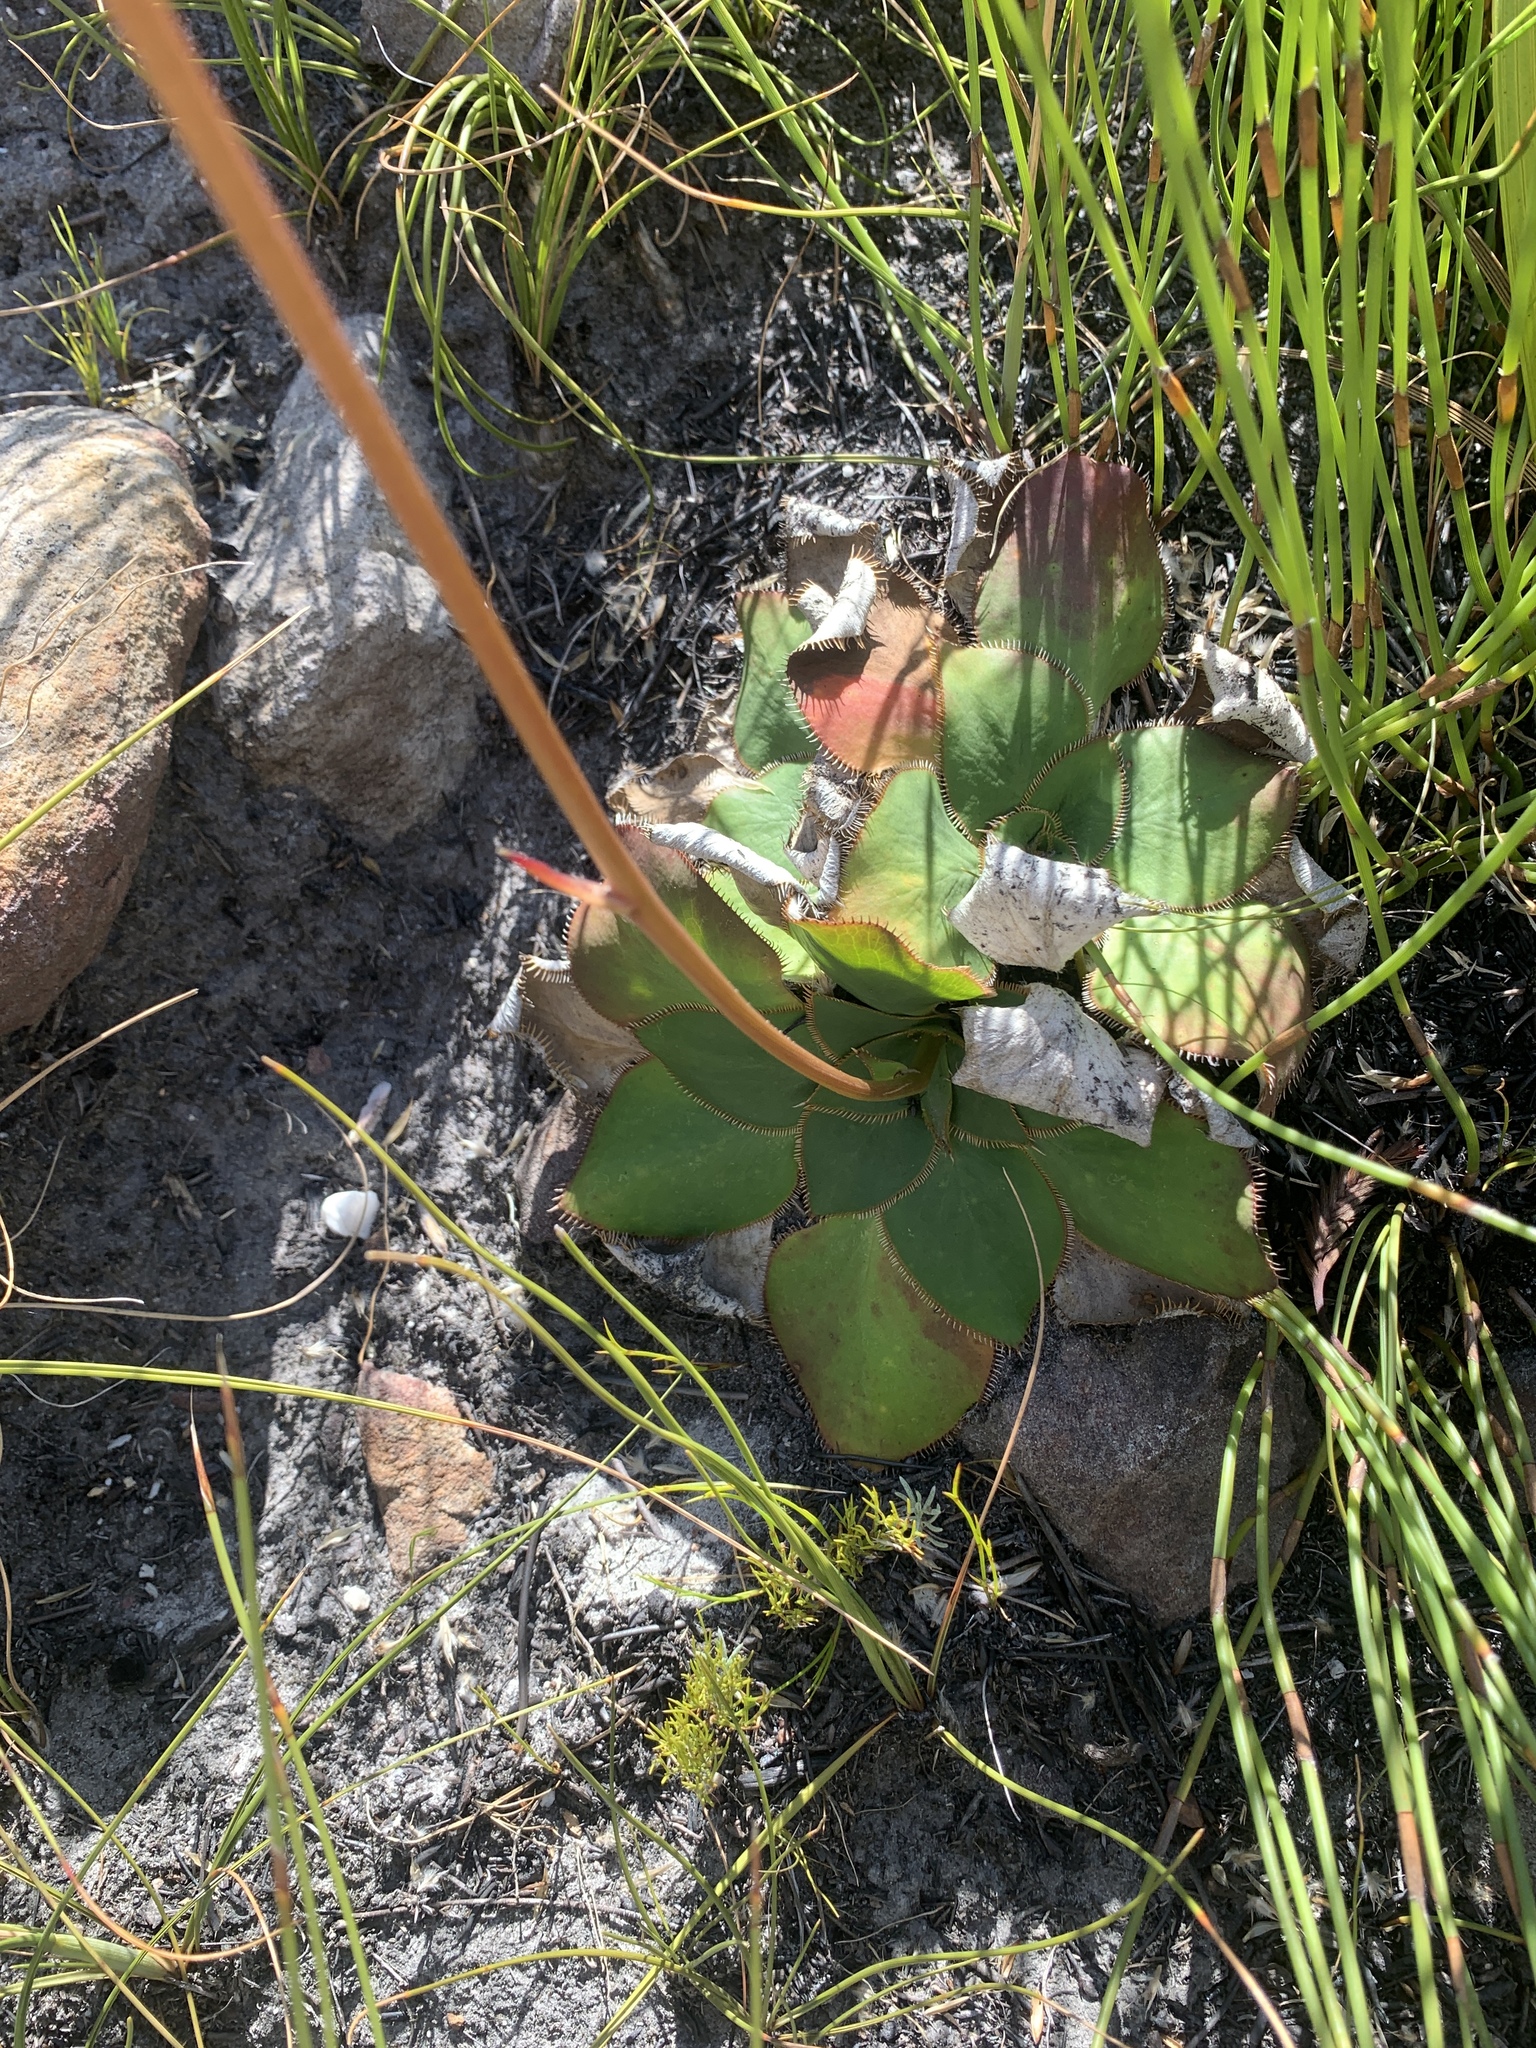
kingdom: Plantae
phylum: Tracheophyta
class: Magnoliopsida
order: Apiales
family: Apiaceae
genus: Hermas
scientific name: Hermas ciliata
